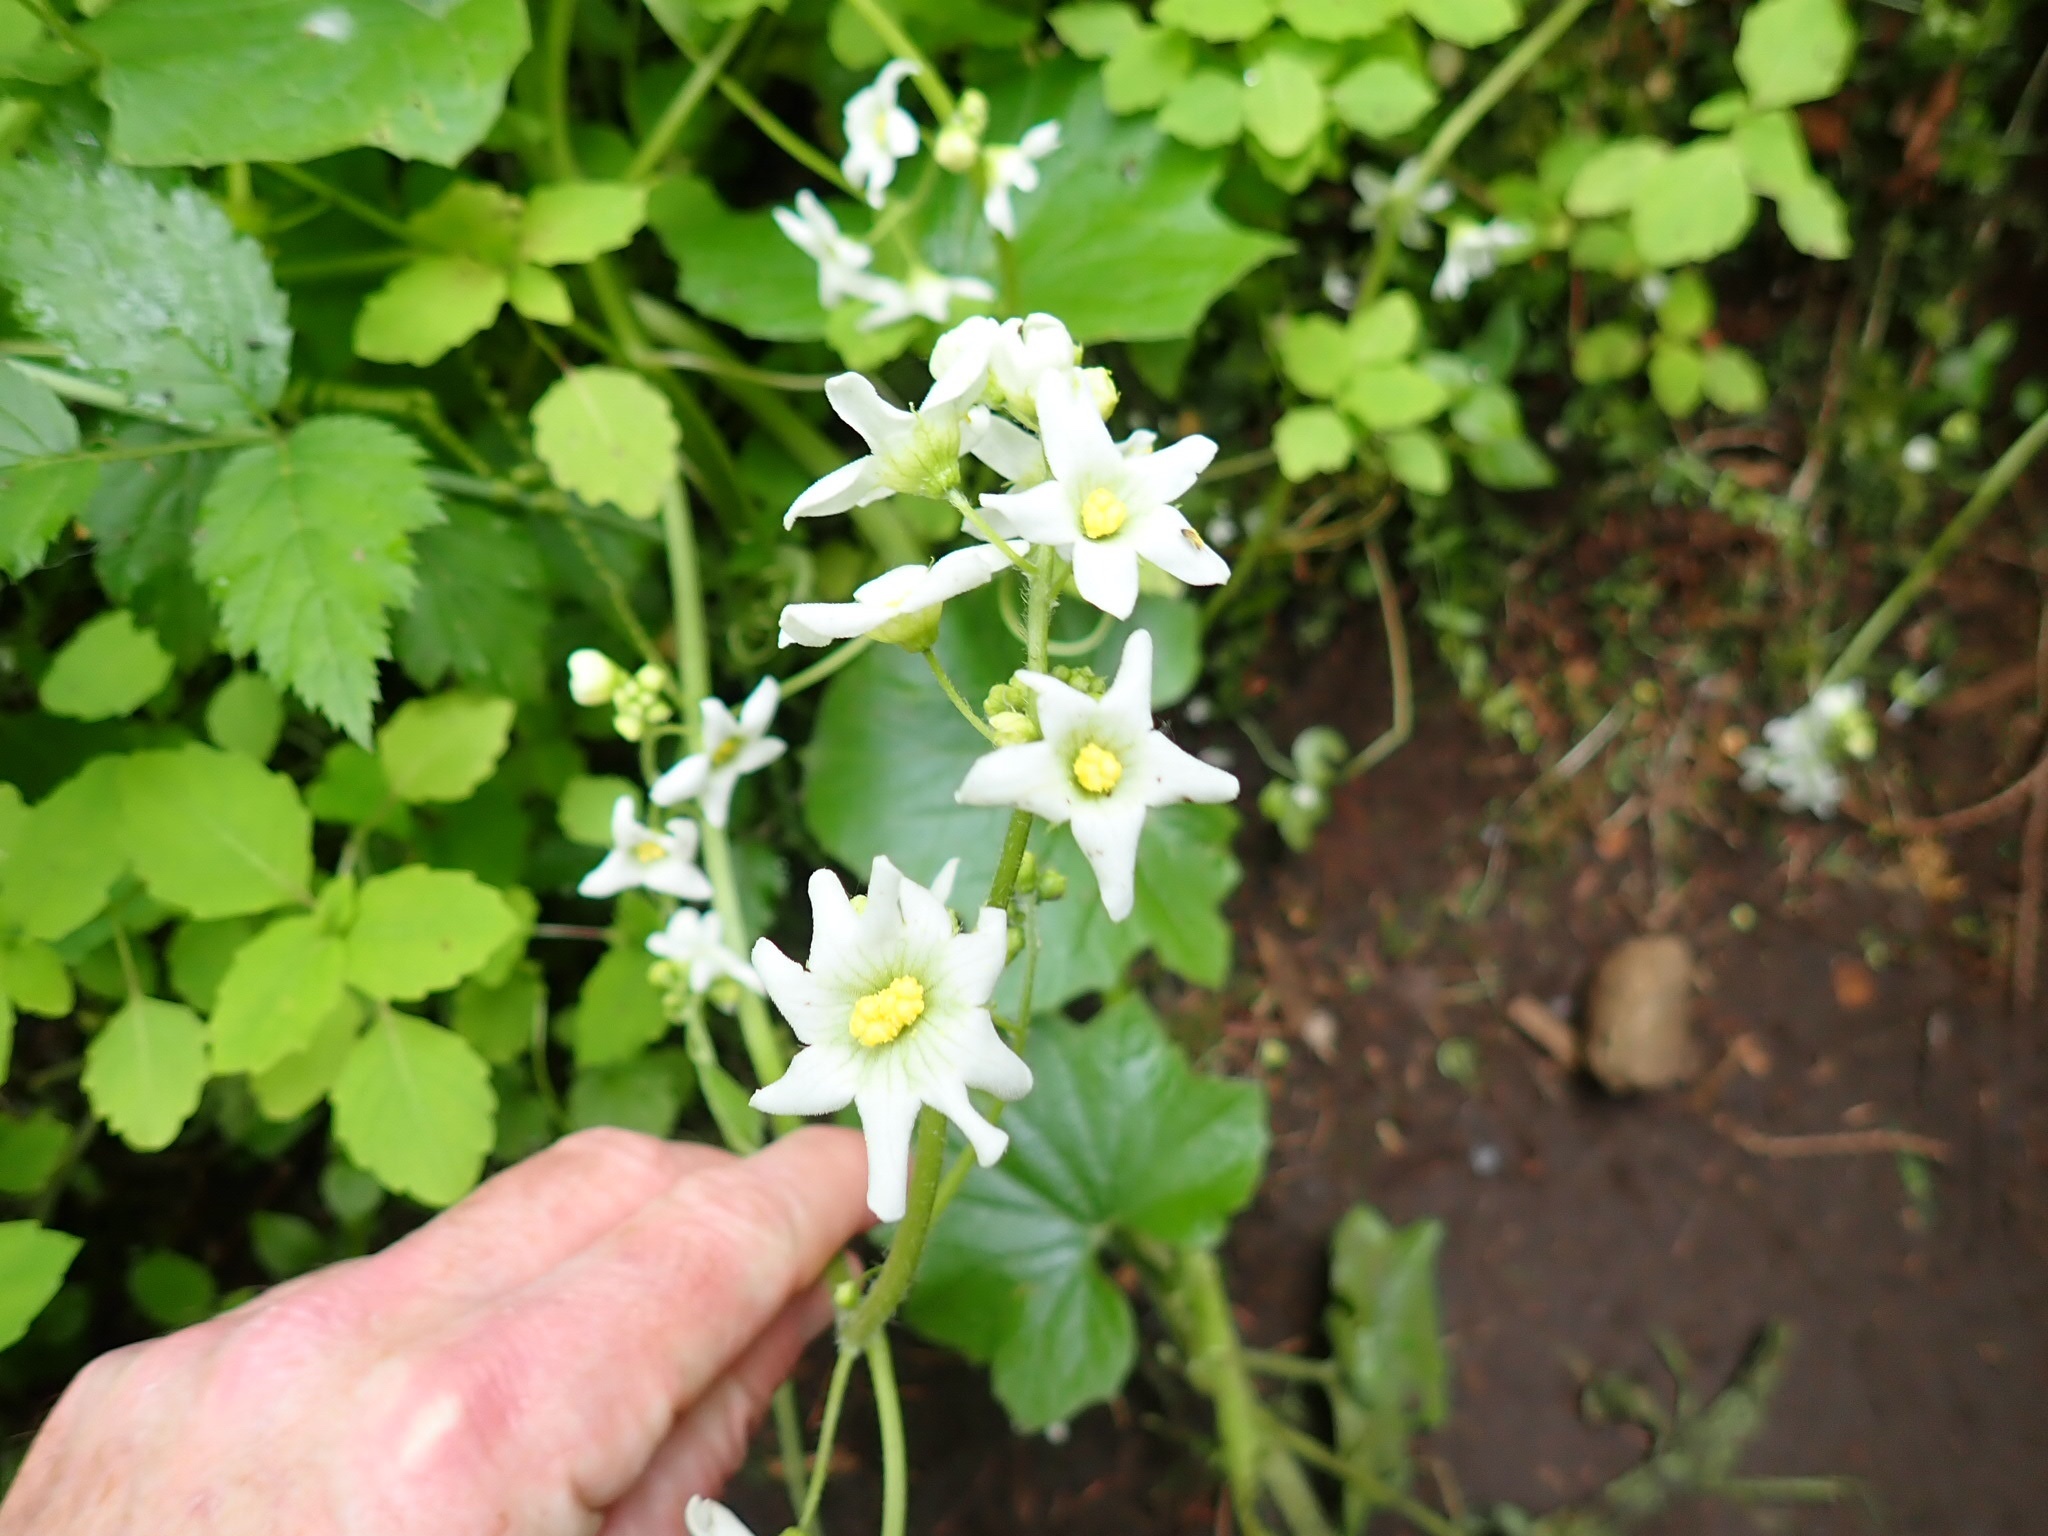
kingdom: Plantae
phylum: Tracheophyta
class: Magnoliopsida
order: Cucurbitales
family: Cucurbitaceae
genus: Marah
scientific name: Marah oregana
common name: Coastal manroot
